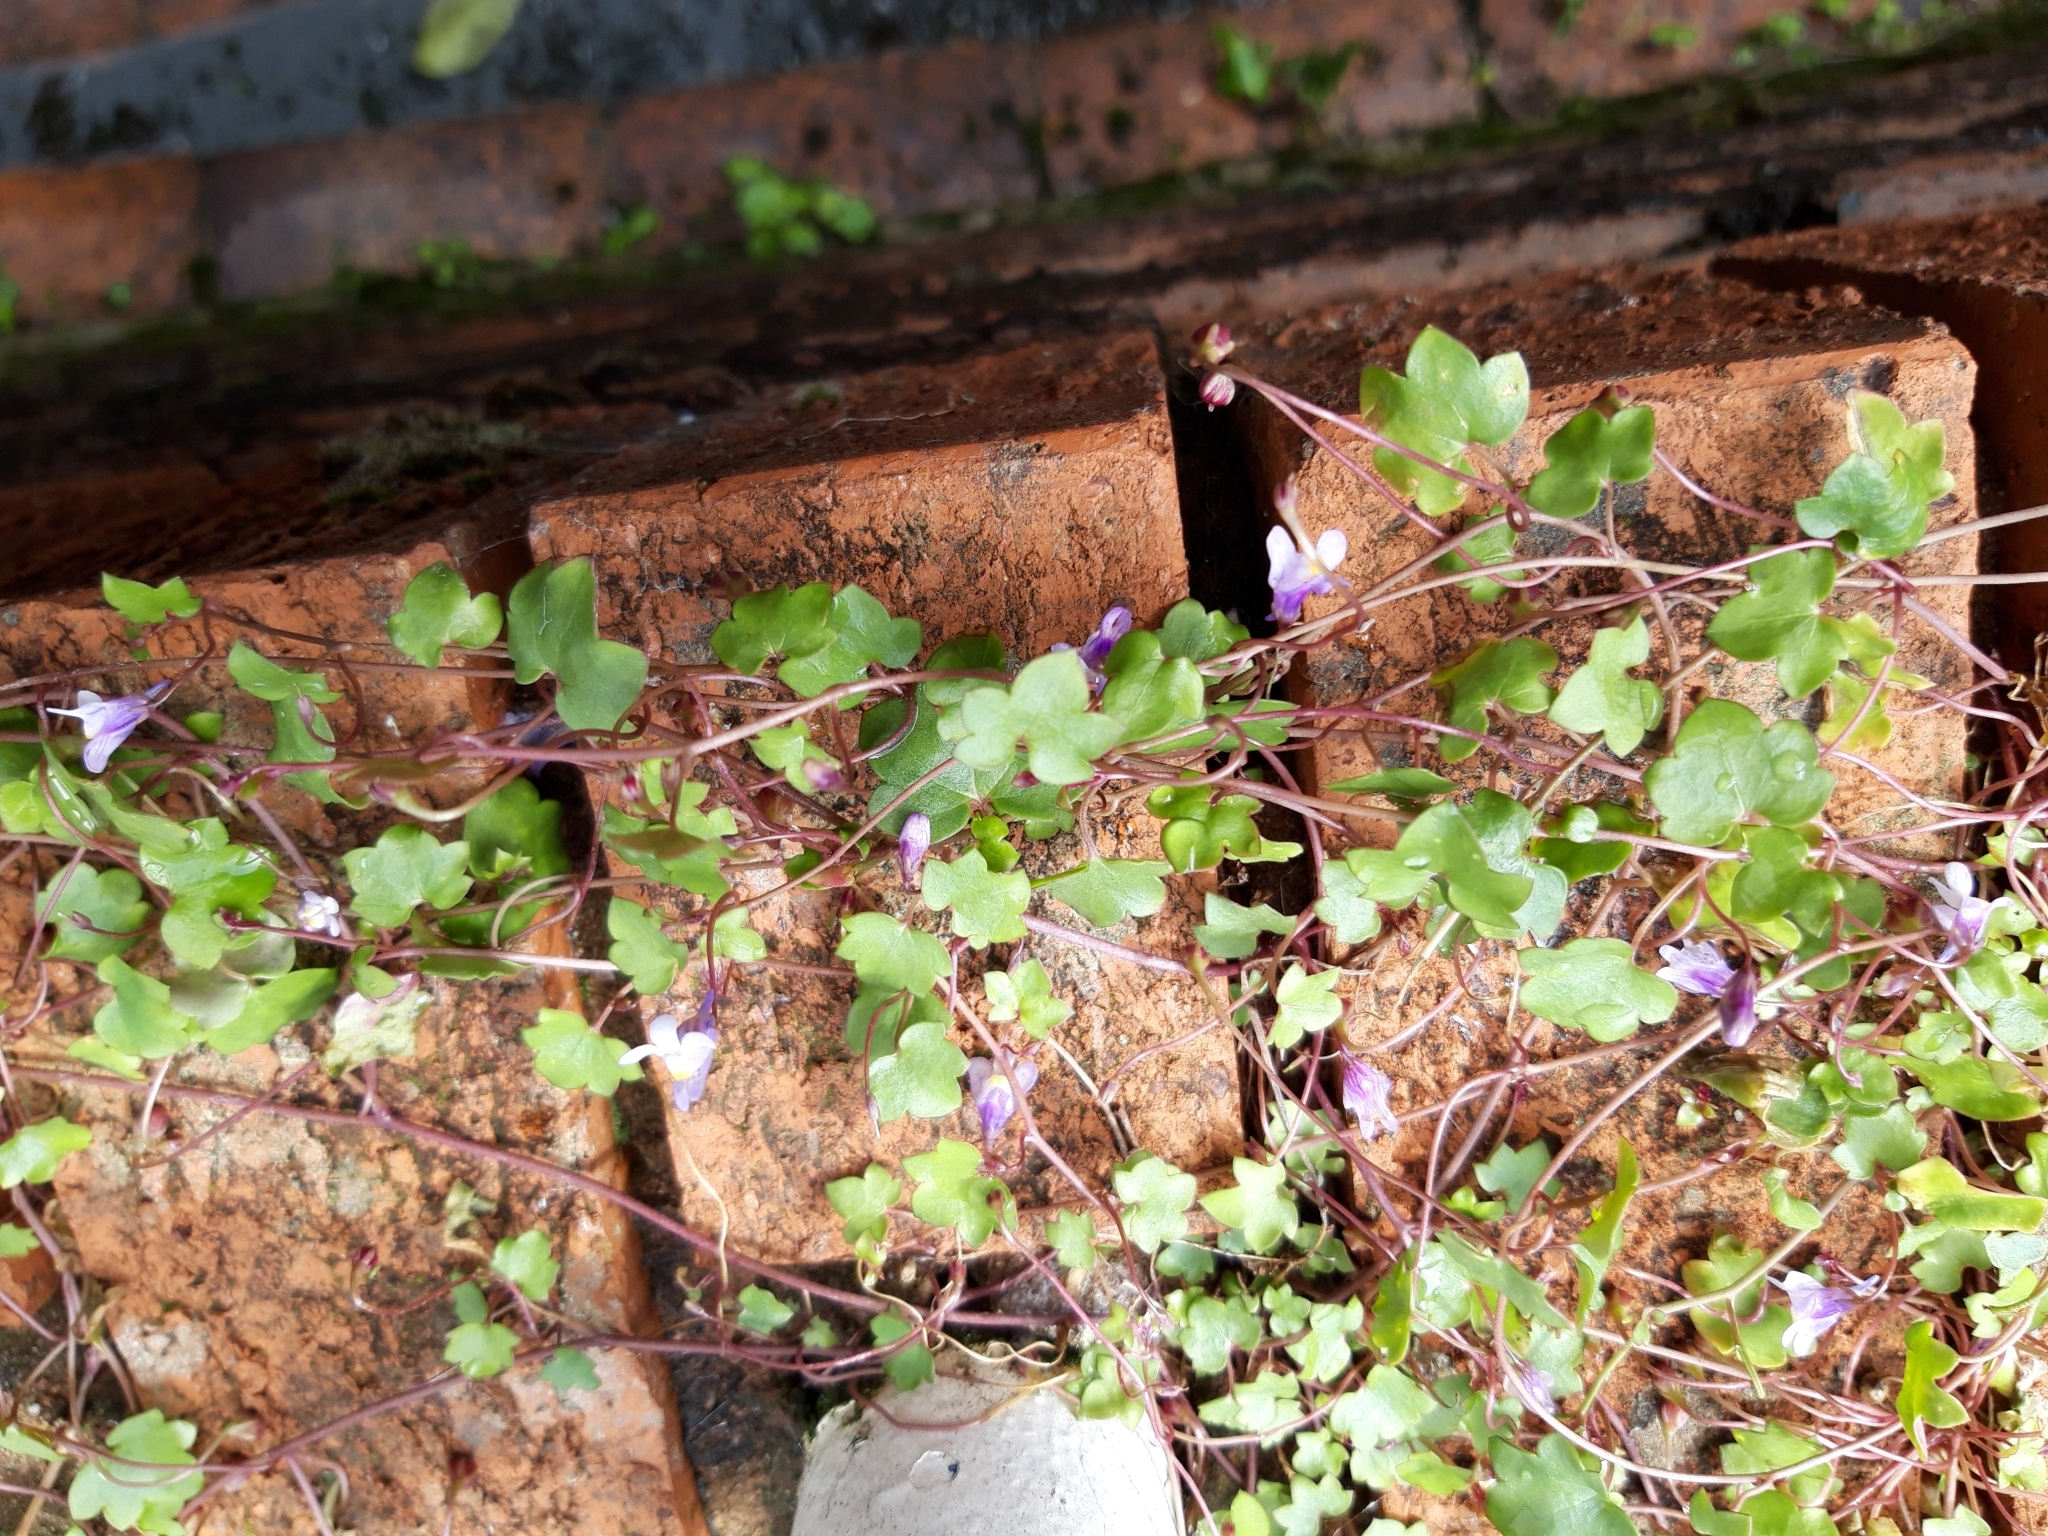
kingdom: Plantae
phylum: Tracheophyta
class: Magnoliopsida
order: Lamiales
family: Plantaginaceae
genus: Cymbalaria
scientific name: Cymbalaria muralis
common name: Ivy-leaved toadflax
